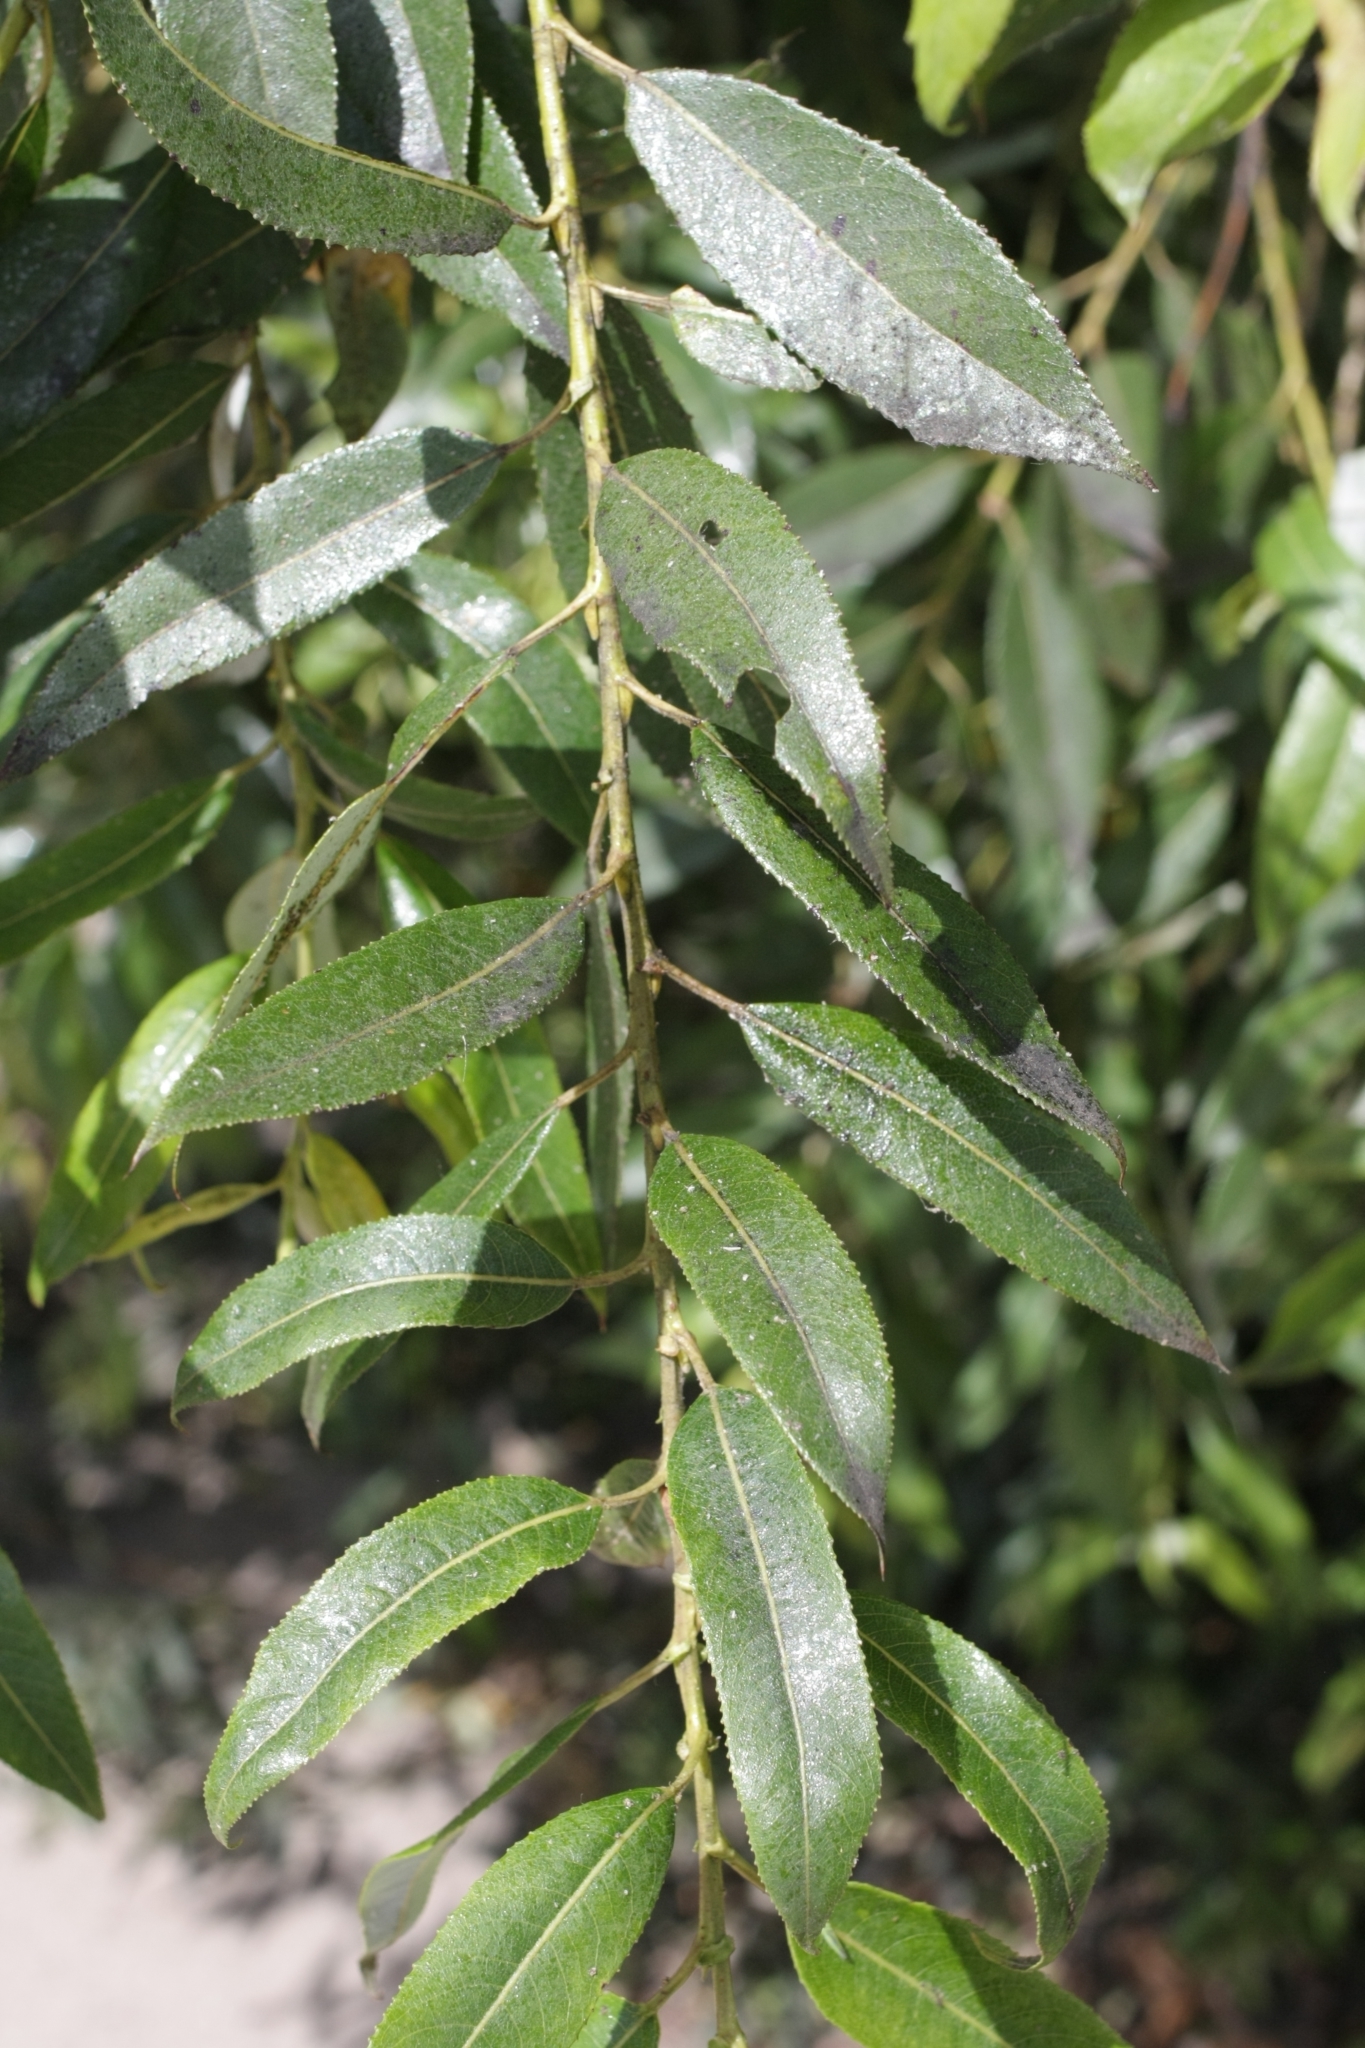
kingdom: Plantae
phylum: Tracheophyta
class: Magnoliopsida
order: Malpighiales
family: Salicaceae
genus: Salix
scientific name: Salix alba
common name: White willow
